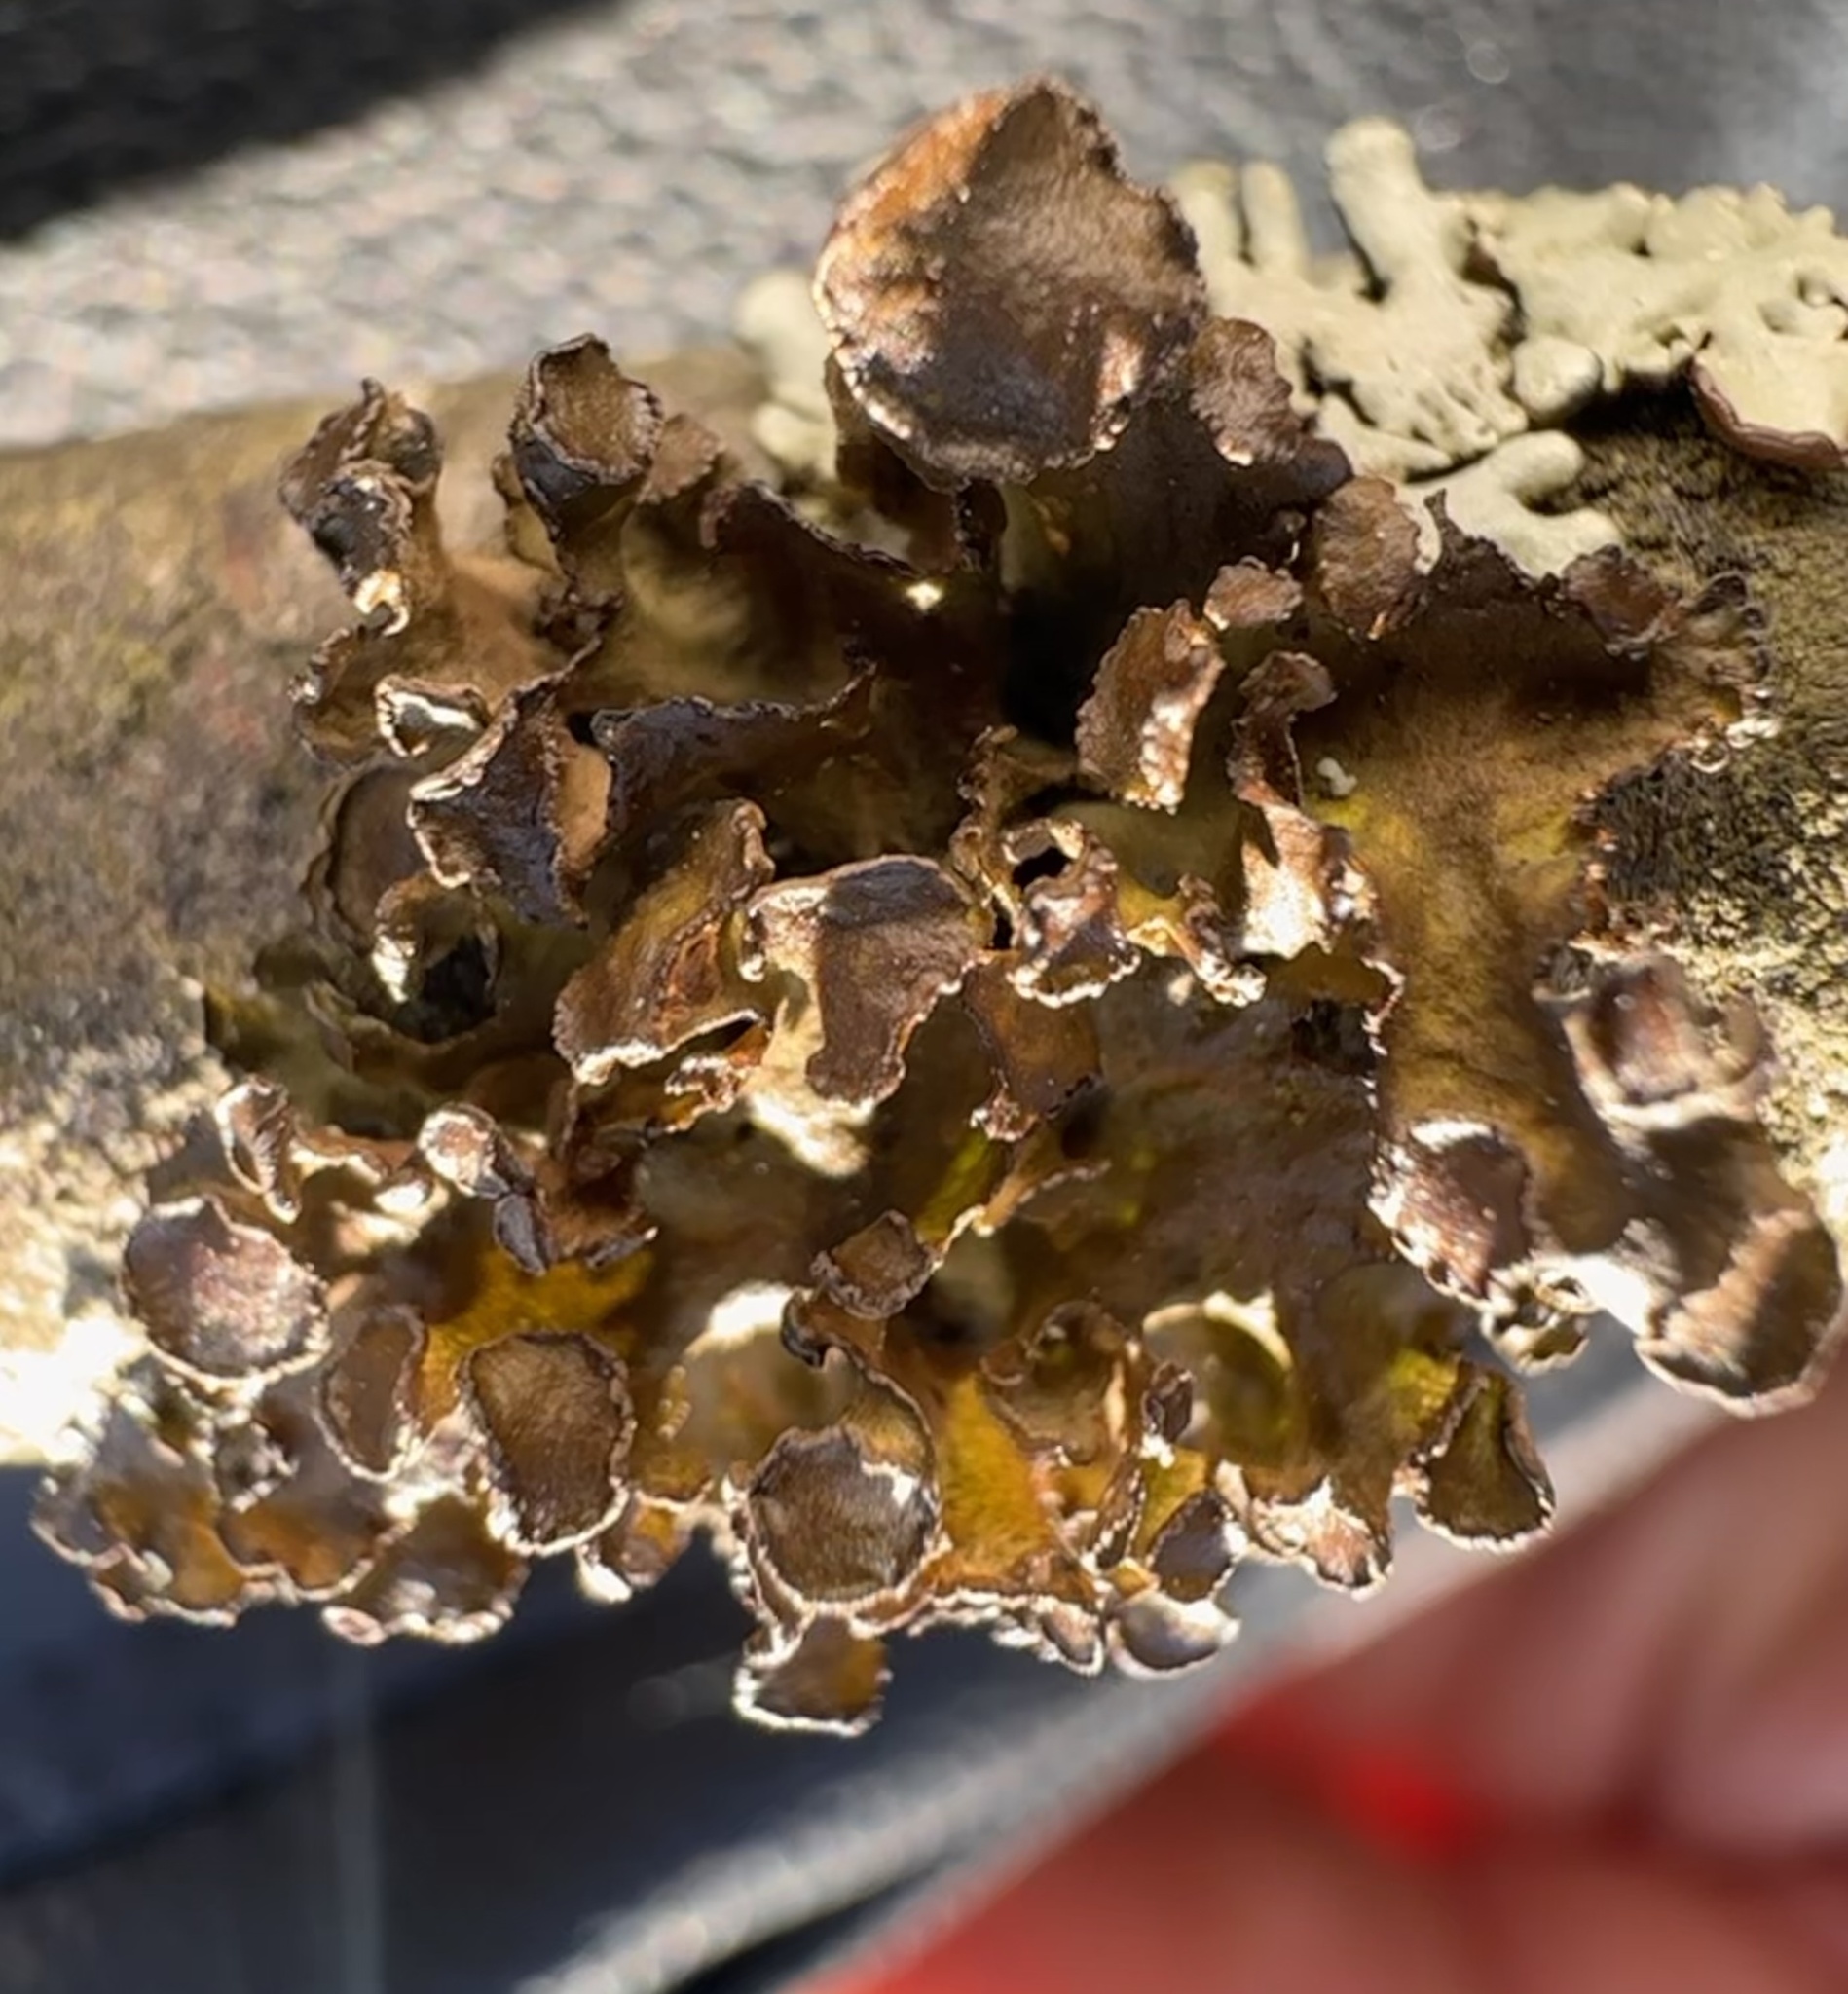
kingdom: Fungi
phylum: Ascomycota
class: Lecanoromycetes
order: Lecanorales
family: Parmeliaceae
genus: Cetraria
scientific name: Cetraria sepincola
